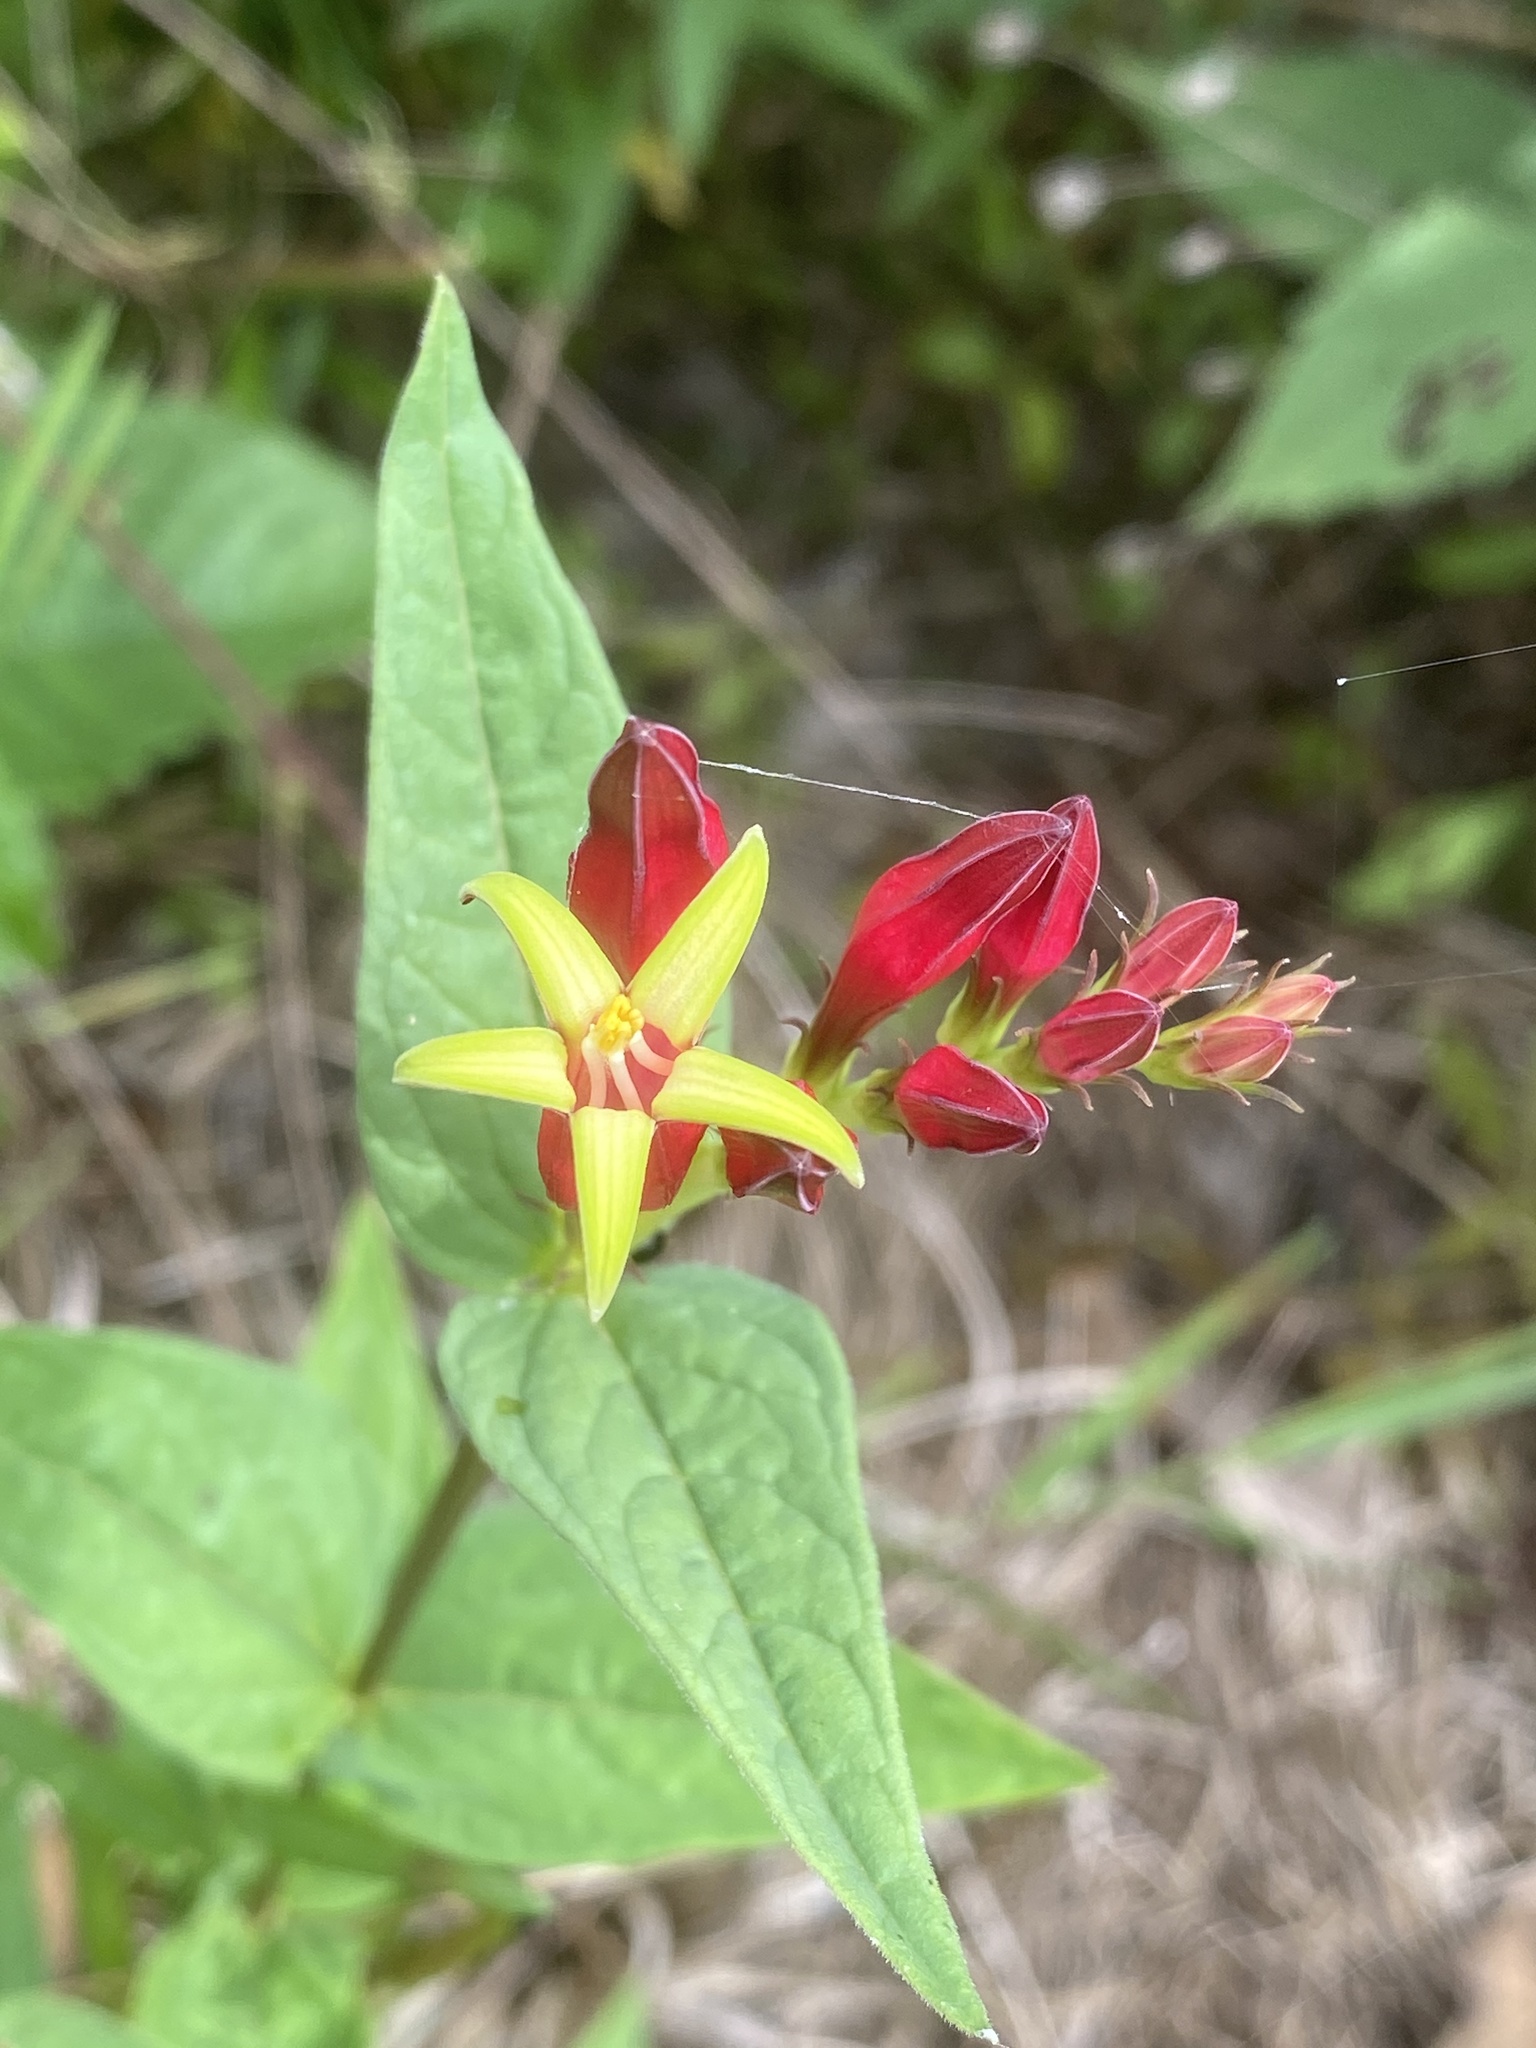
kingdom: Plantae
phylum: Tracheophyta
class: Magnoliopsida
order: Gentianales
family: Loganiaceae
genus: Spigelia
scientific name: Spigelia marilandica
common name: Indian-pink
